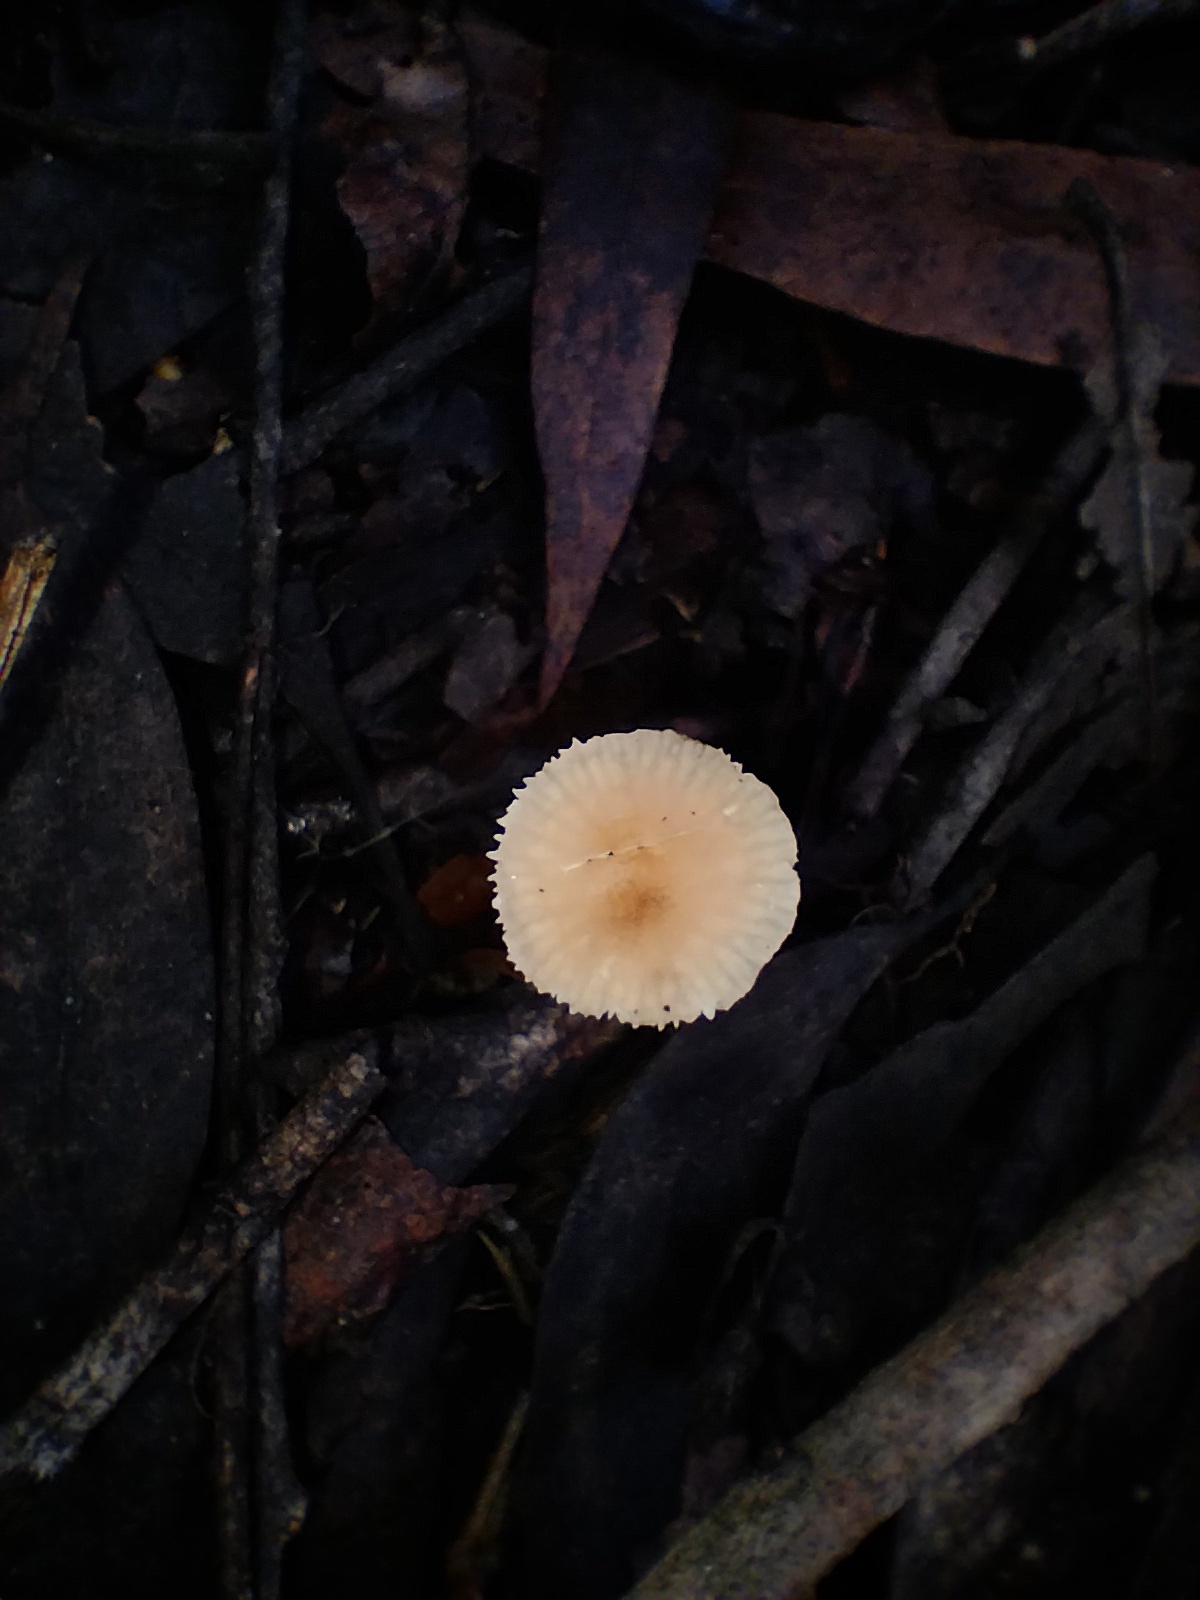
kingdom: Fungi
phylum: Basidiomycota
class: Agaricomycetes
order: Agaricales
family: Marasmiaceae
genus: Marasmius
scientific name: Marasmius elegans
